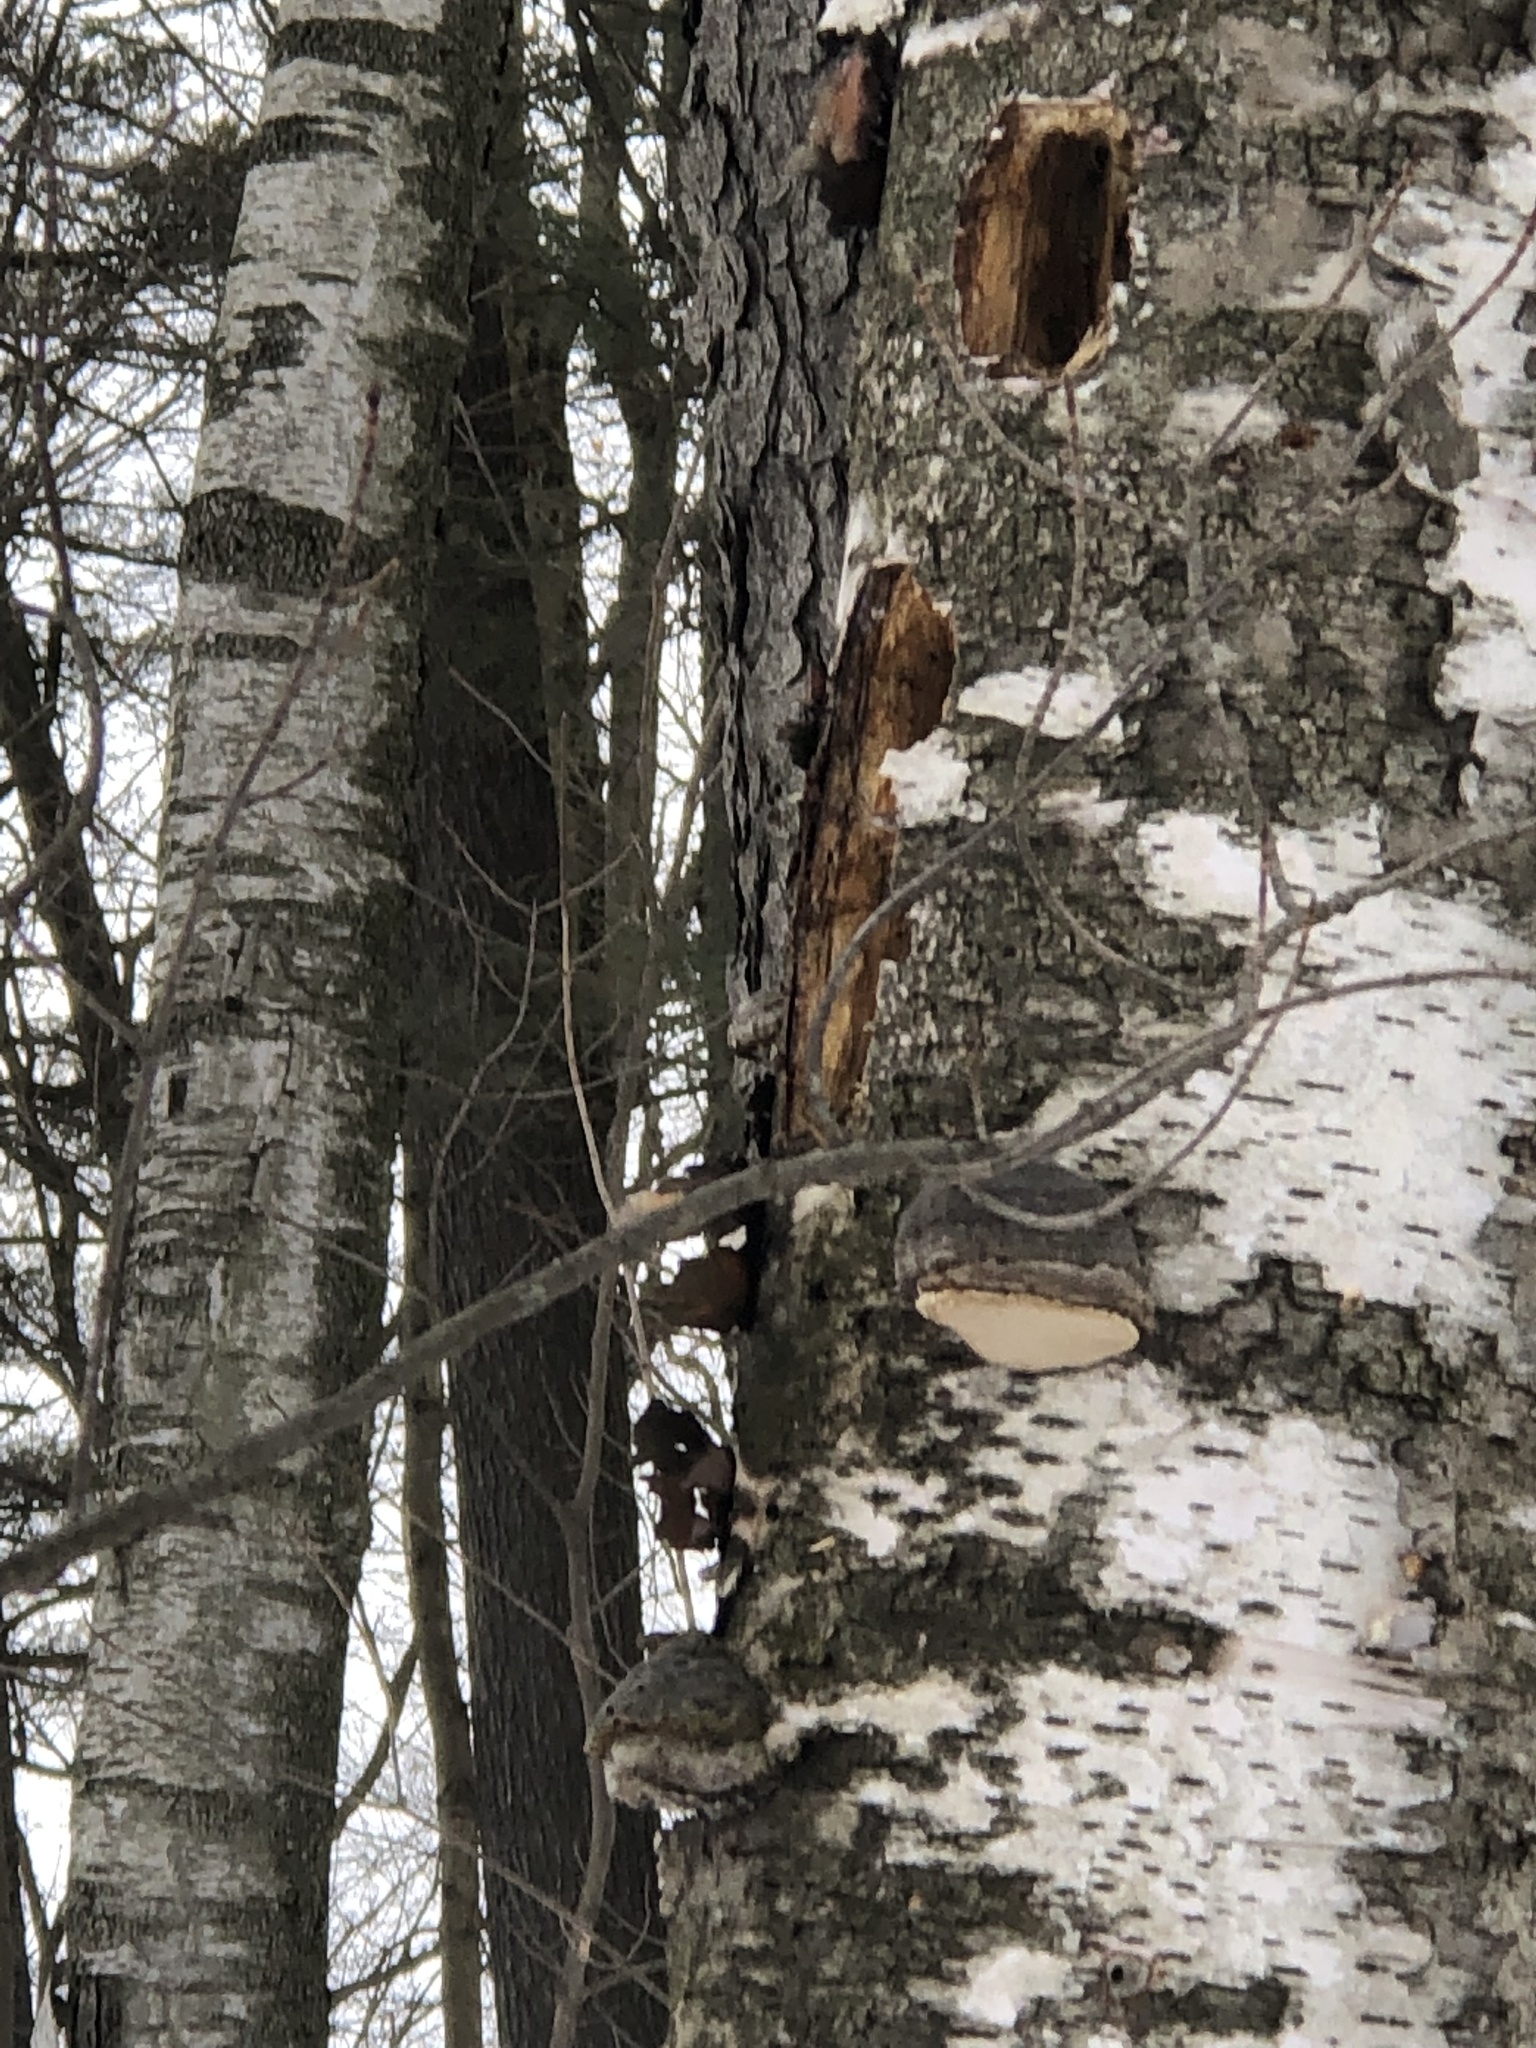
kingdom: Animalia
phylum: Chordata
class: Aves
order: Piciformes
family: Picidae
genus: Dryocopus
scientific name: Dryocopus pileatus
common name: Pileated woodpecker
